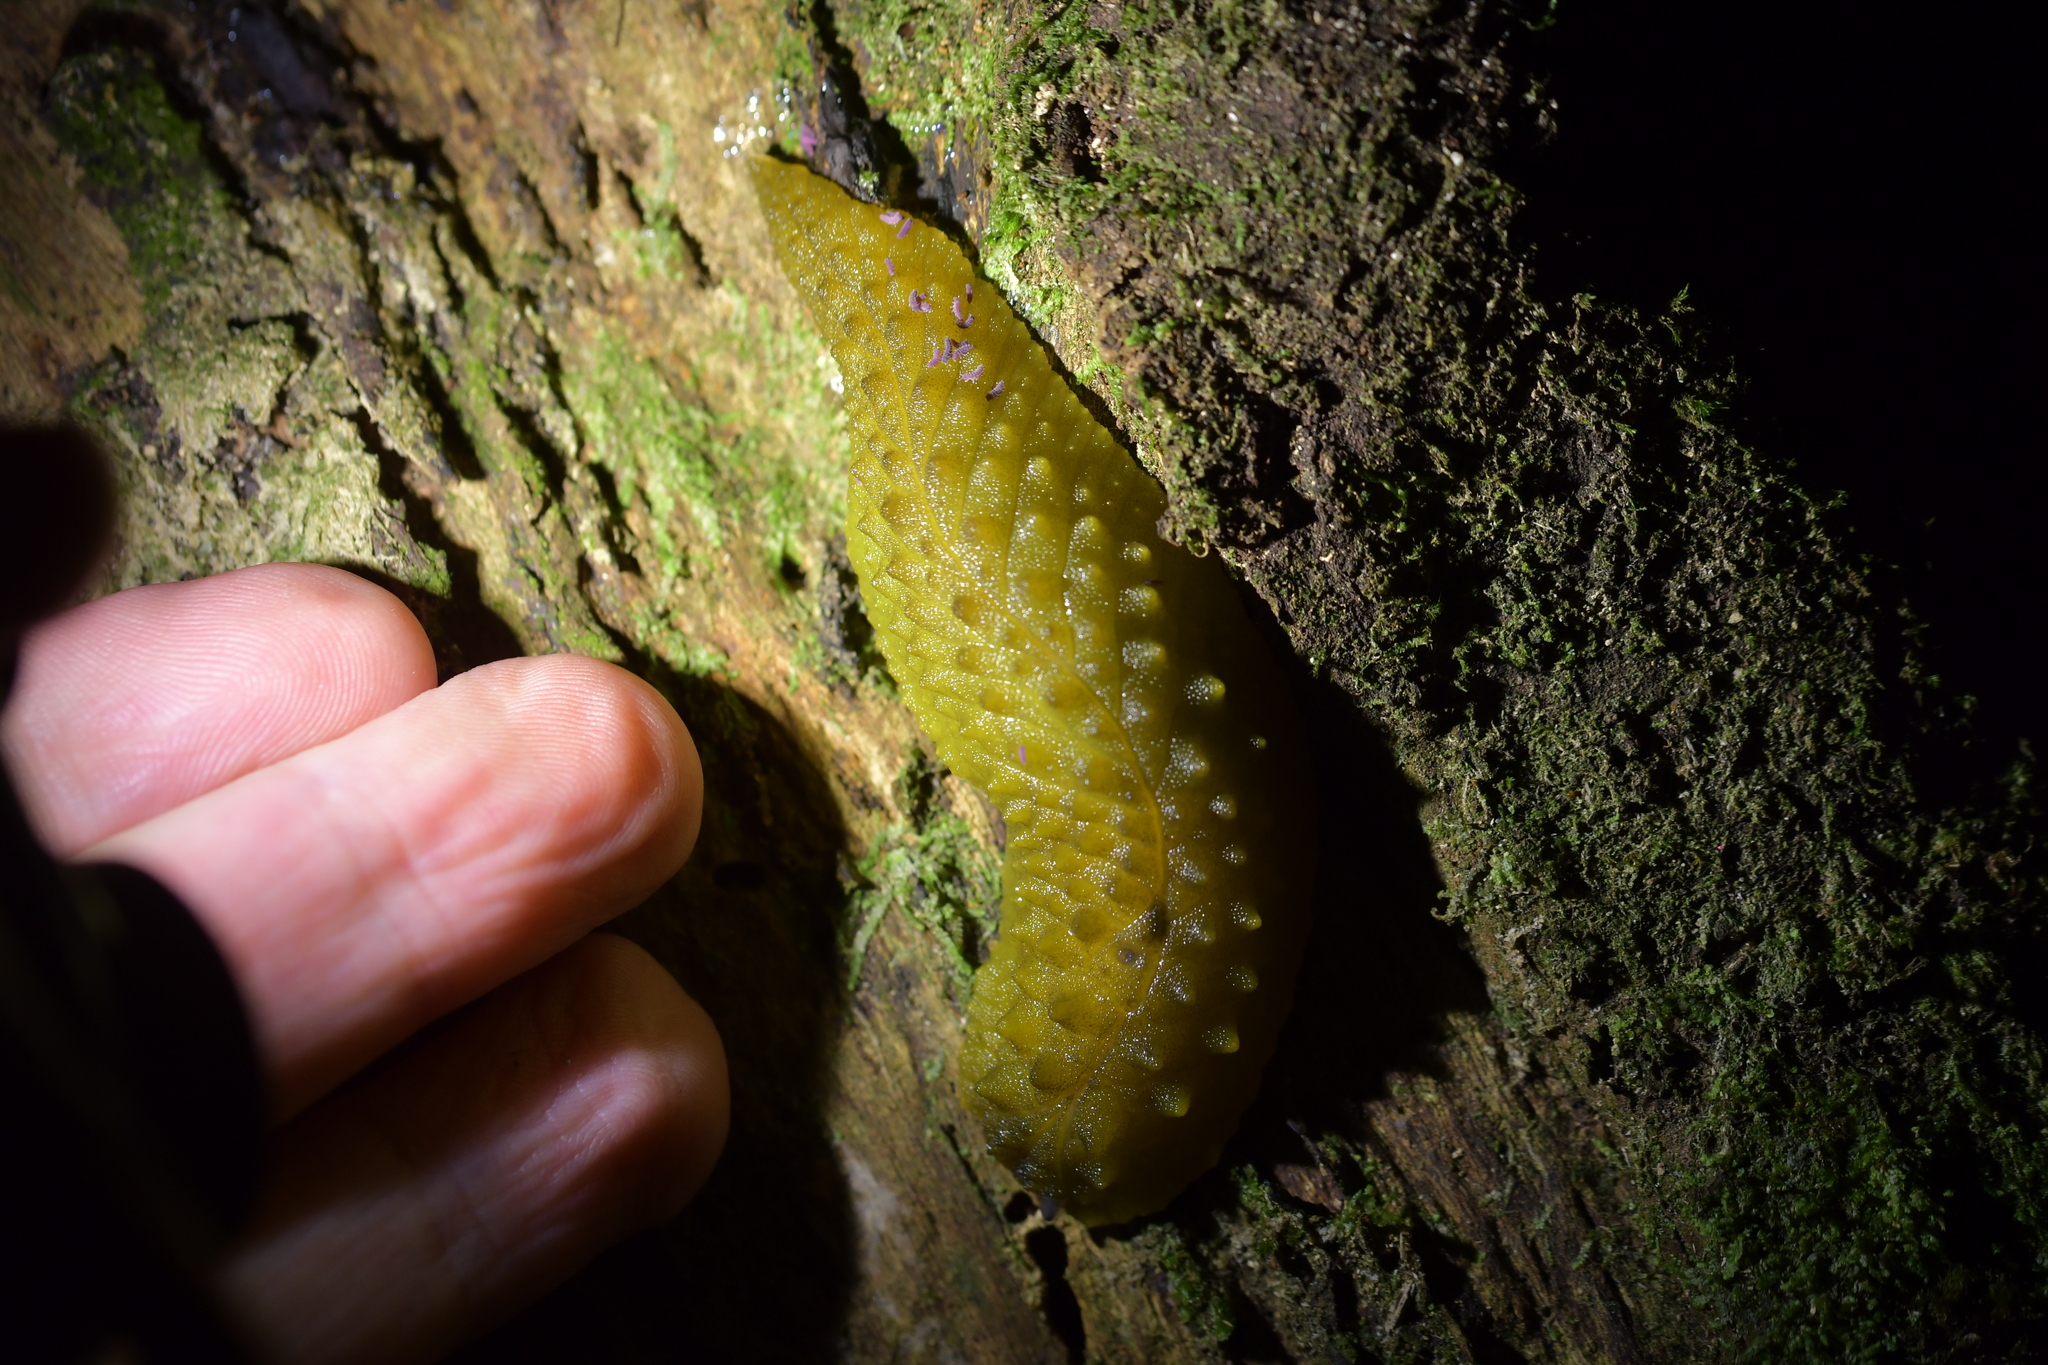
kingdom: Animalia
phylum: Mollusca
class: Gastropoda
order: Stylommatophora
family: Athoracophoridae
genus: Athoracophorus
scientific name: Athoracophorus papillatus
